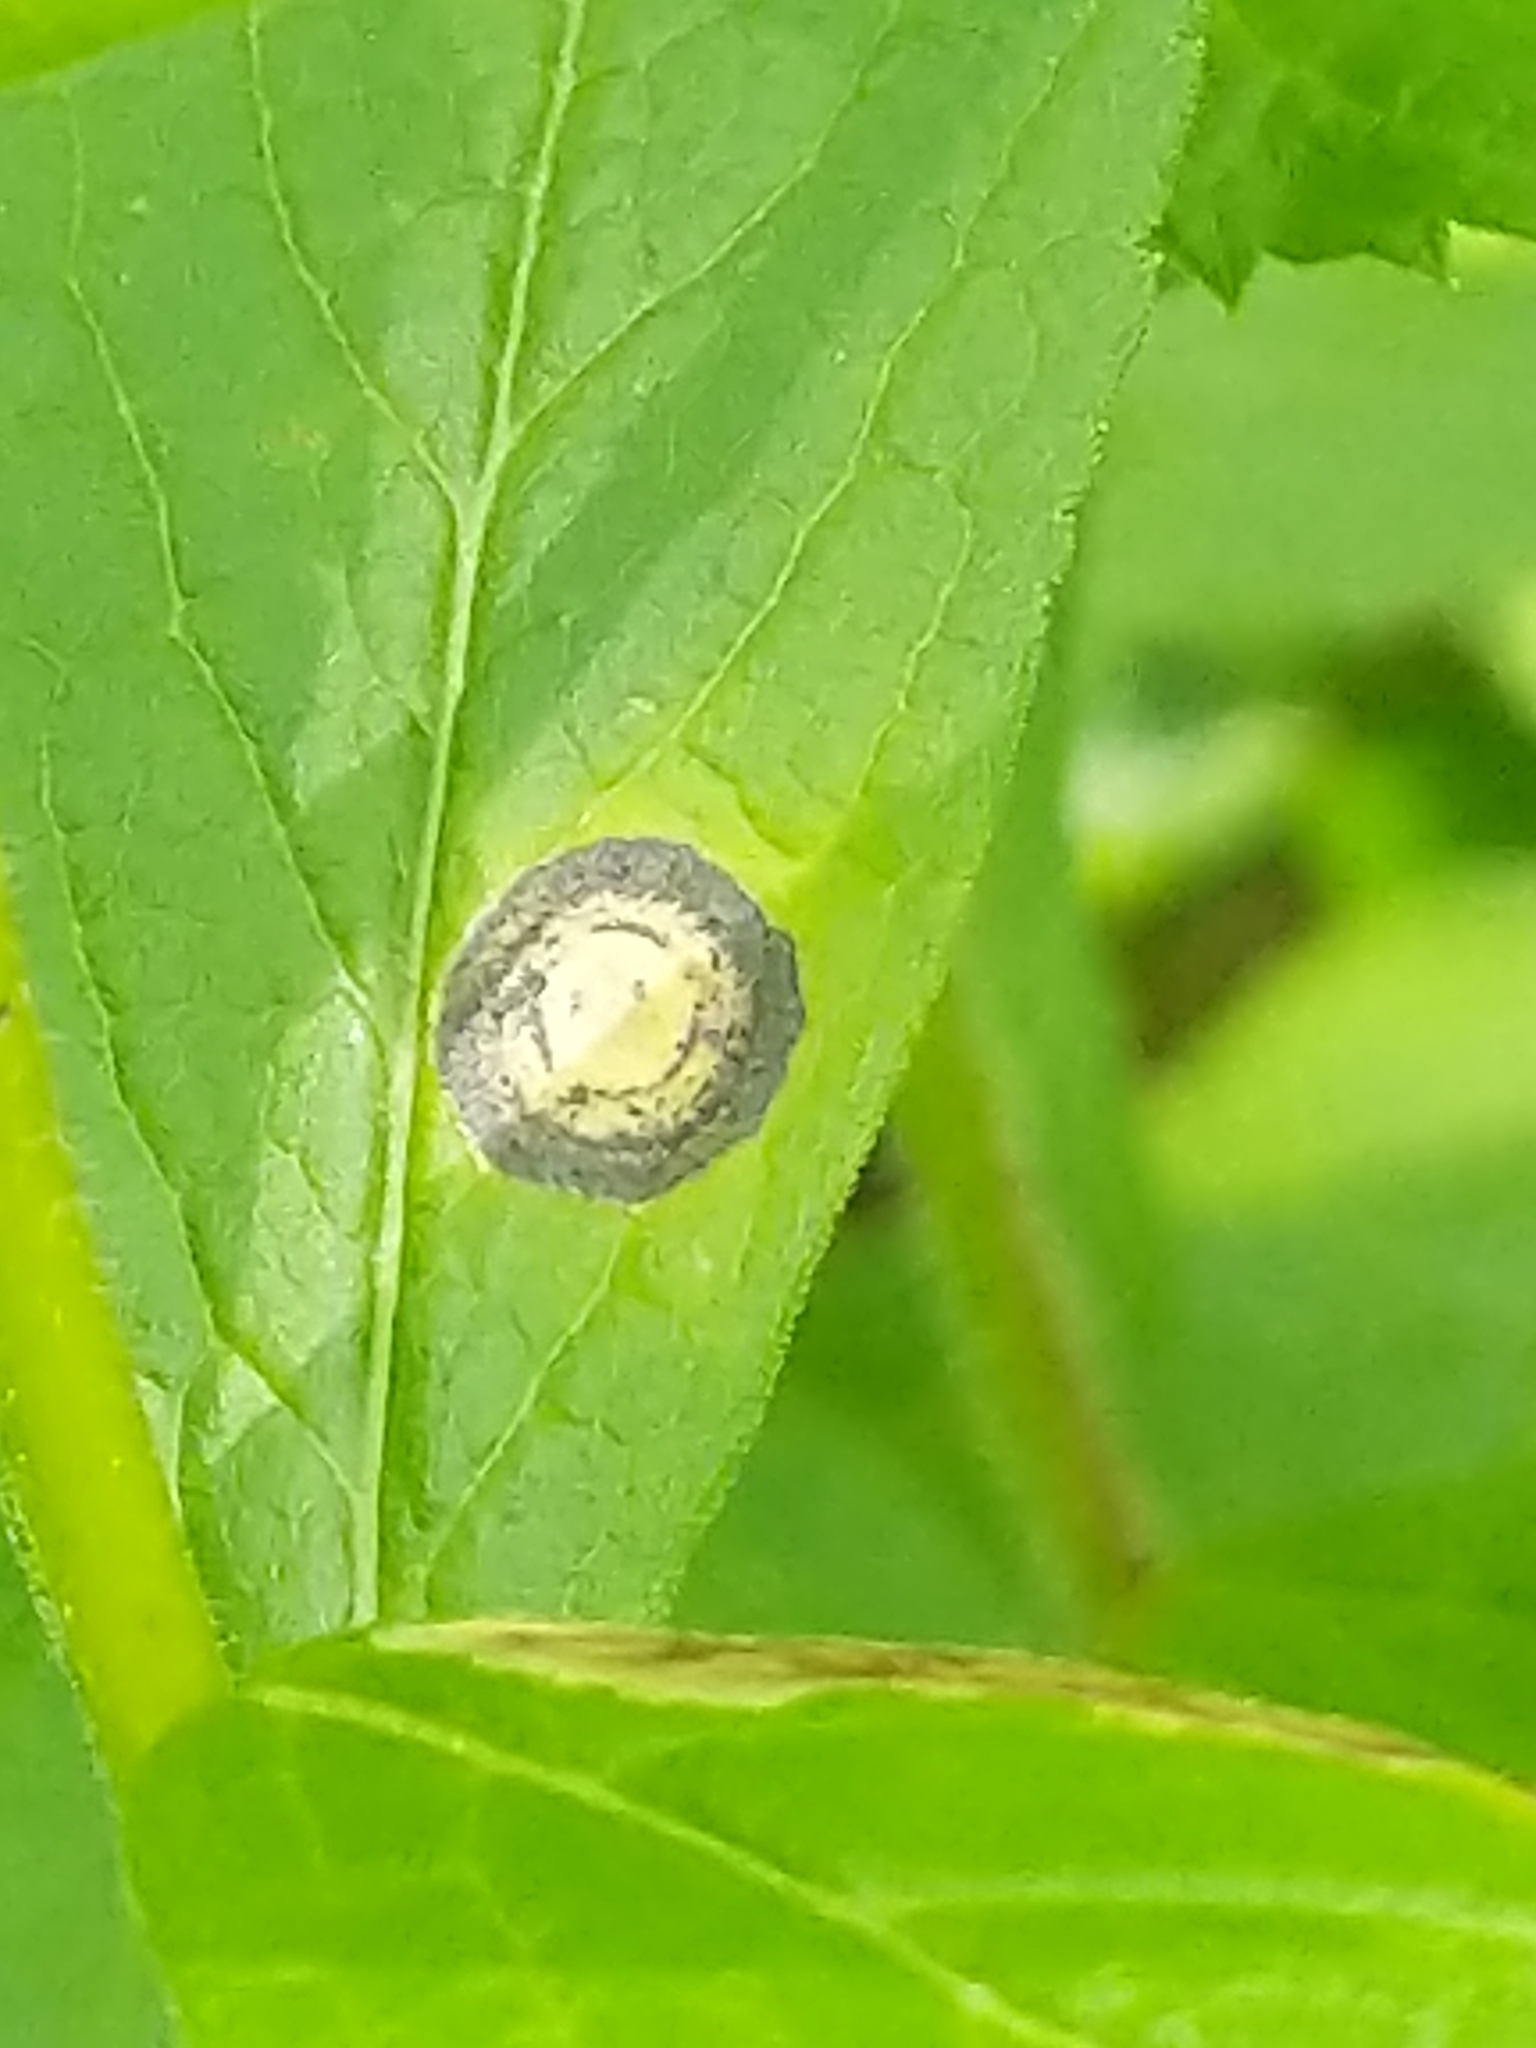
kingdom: Animalia
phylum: Arthropoda
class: Insecta
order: Diptera
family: Cecidomyiidae
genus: Asteromyia
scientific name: Asteromyia carbonifera
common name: Carbonifera goldenrod gall midge
